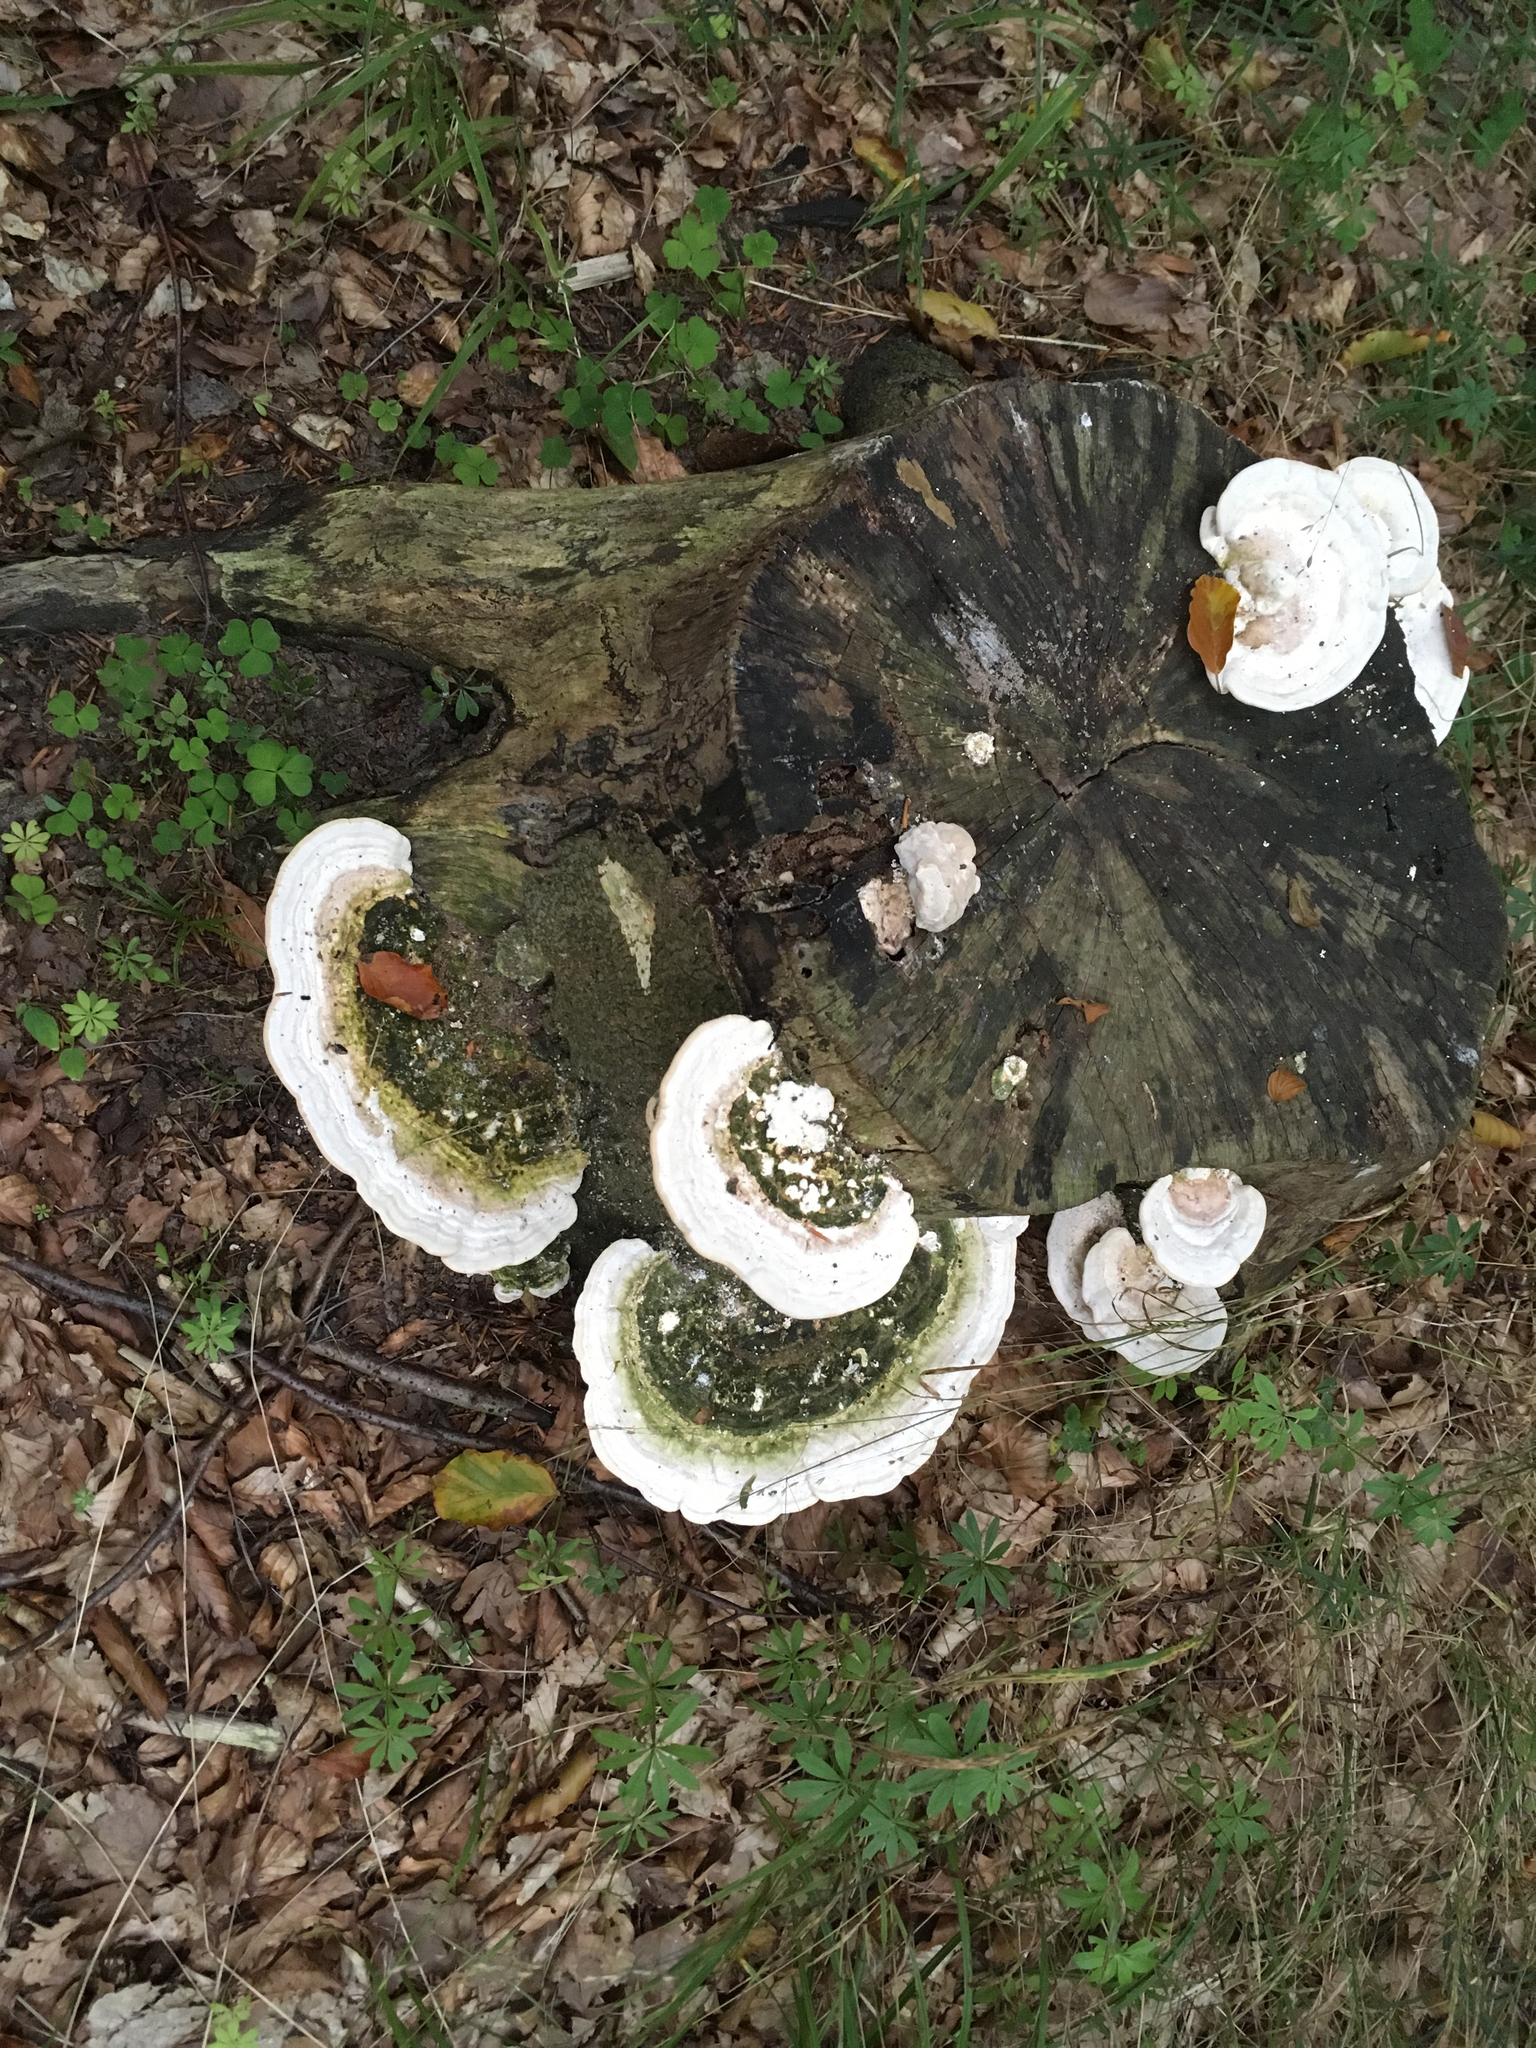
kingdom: Fungi
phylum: Basidiomycota
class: Agaricomycetes
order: Polyporales
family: Polyporaceae
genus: Trametes
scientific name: Trametes gibbosa
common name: Lumpy bracket
